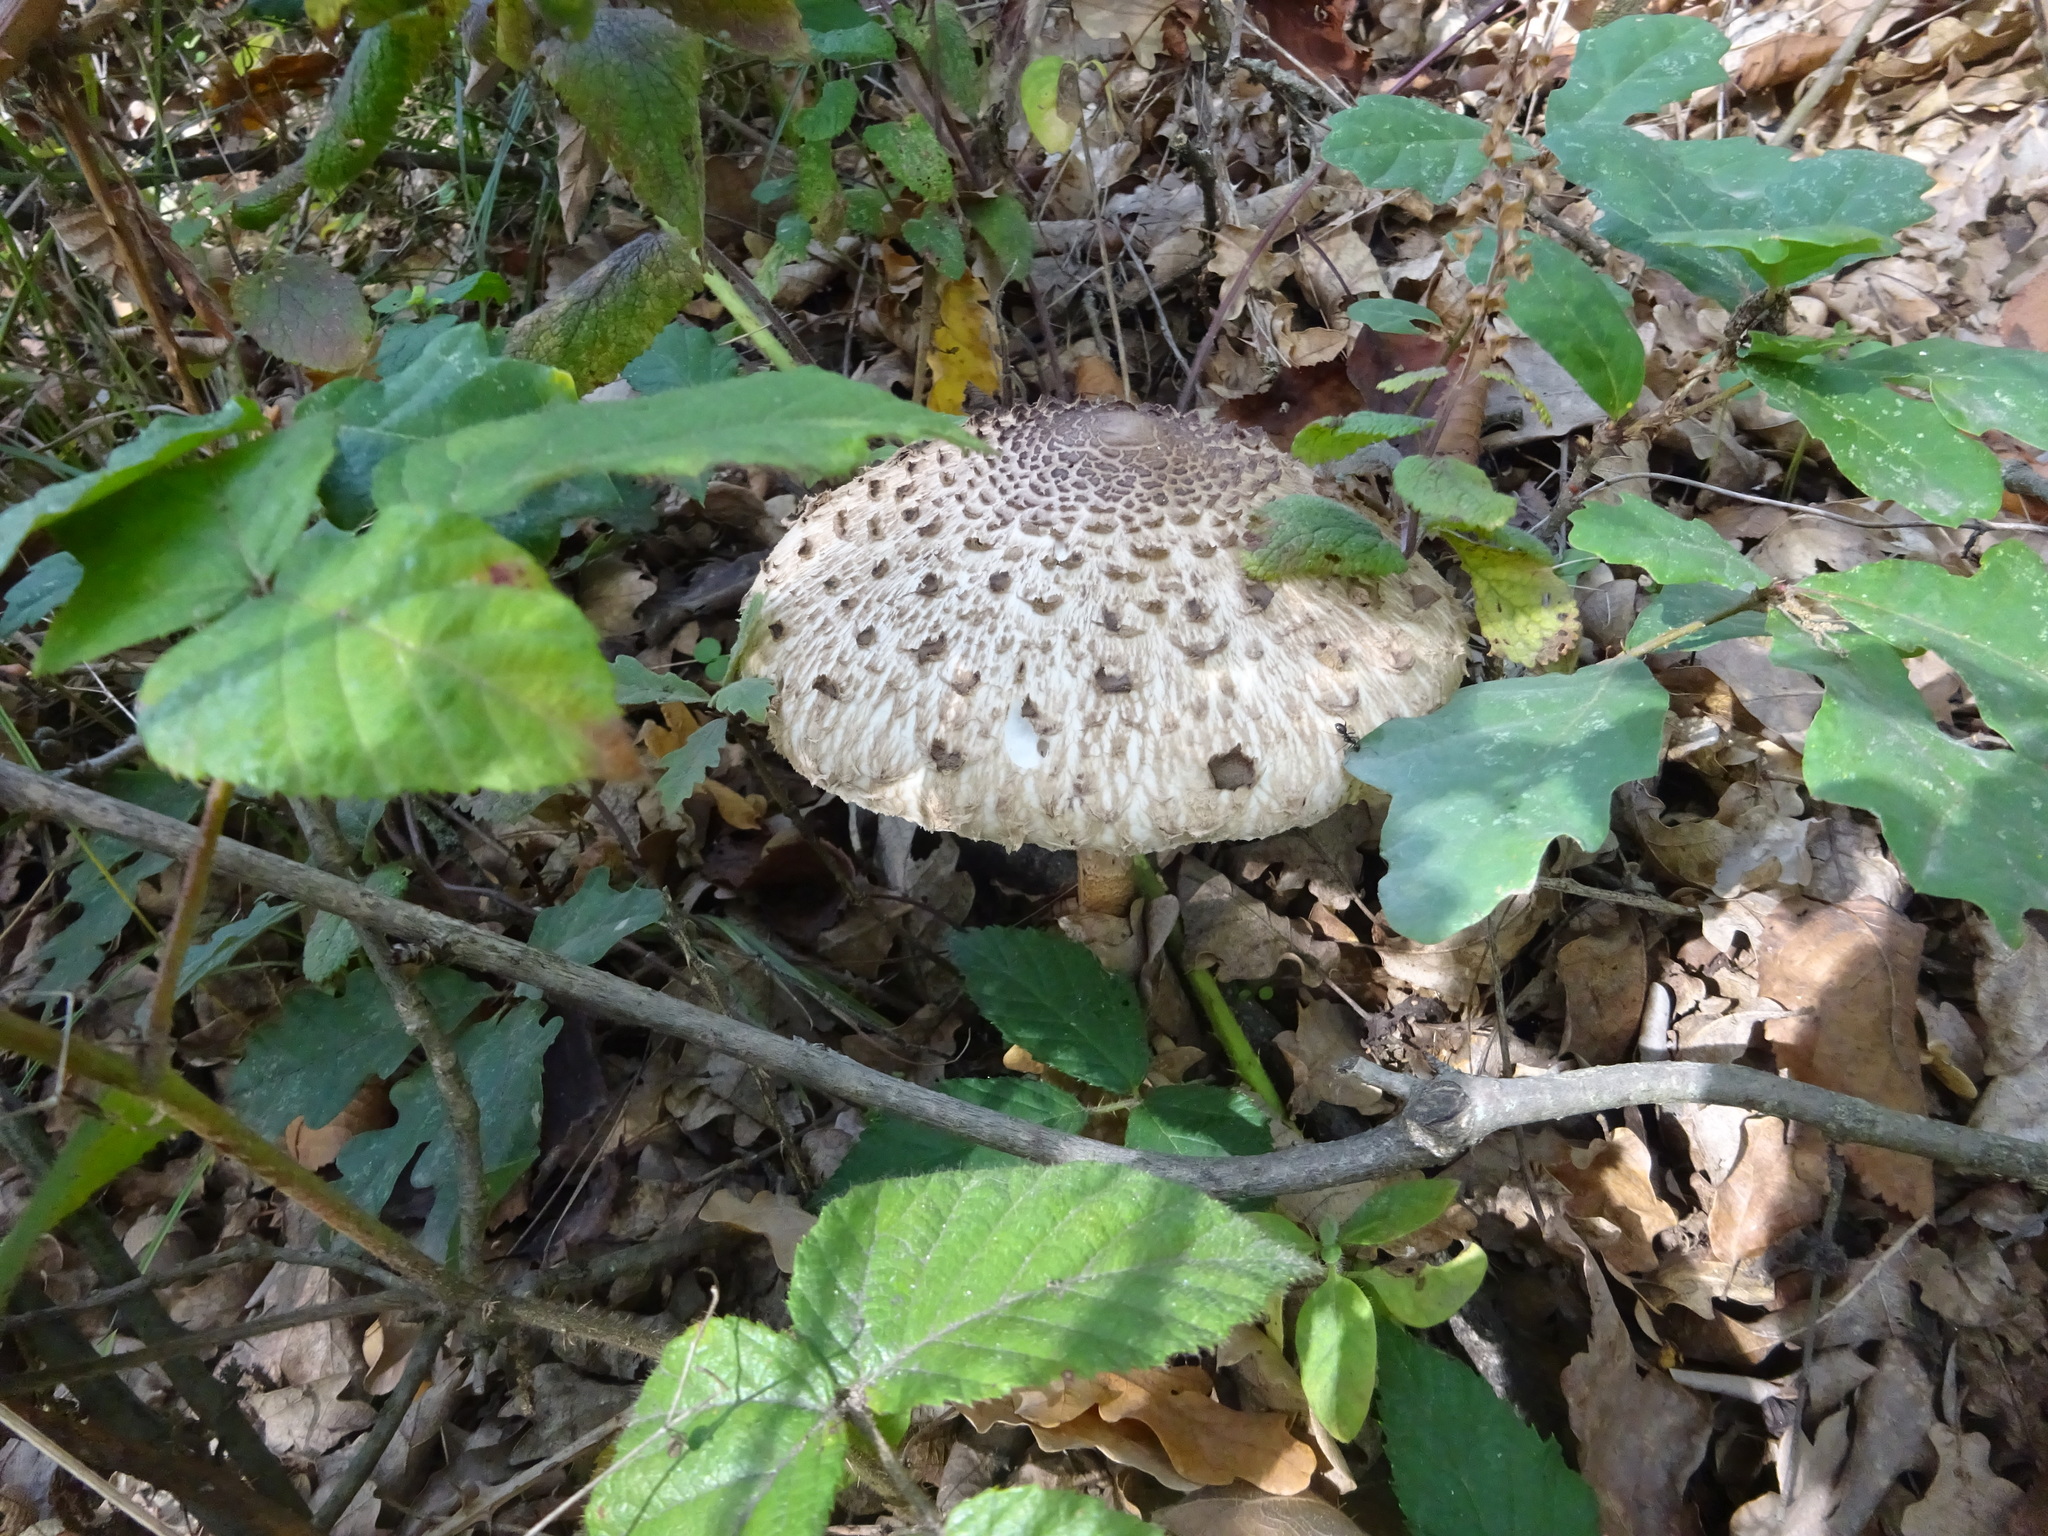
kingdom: Fungi
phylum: Basidiomycota
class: Agaricomycetes
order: Agaricales
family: Agaricaceae
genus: Macrolepiota
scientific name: Macrolepiota procera
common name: Parasol
